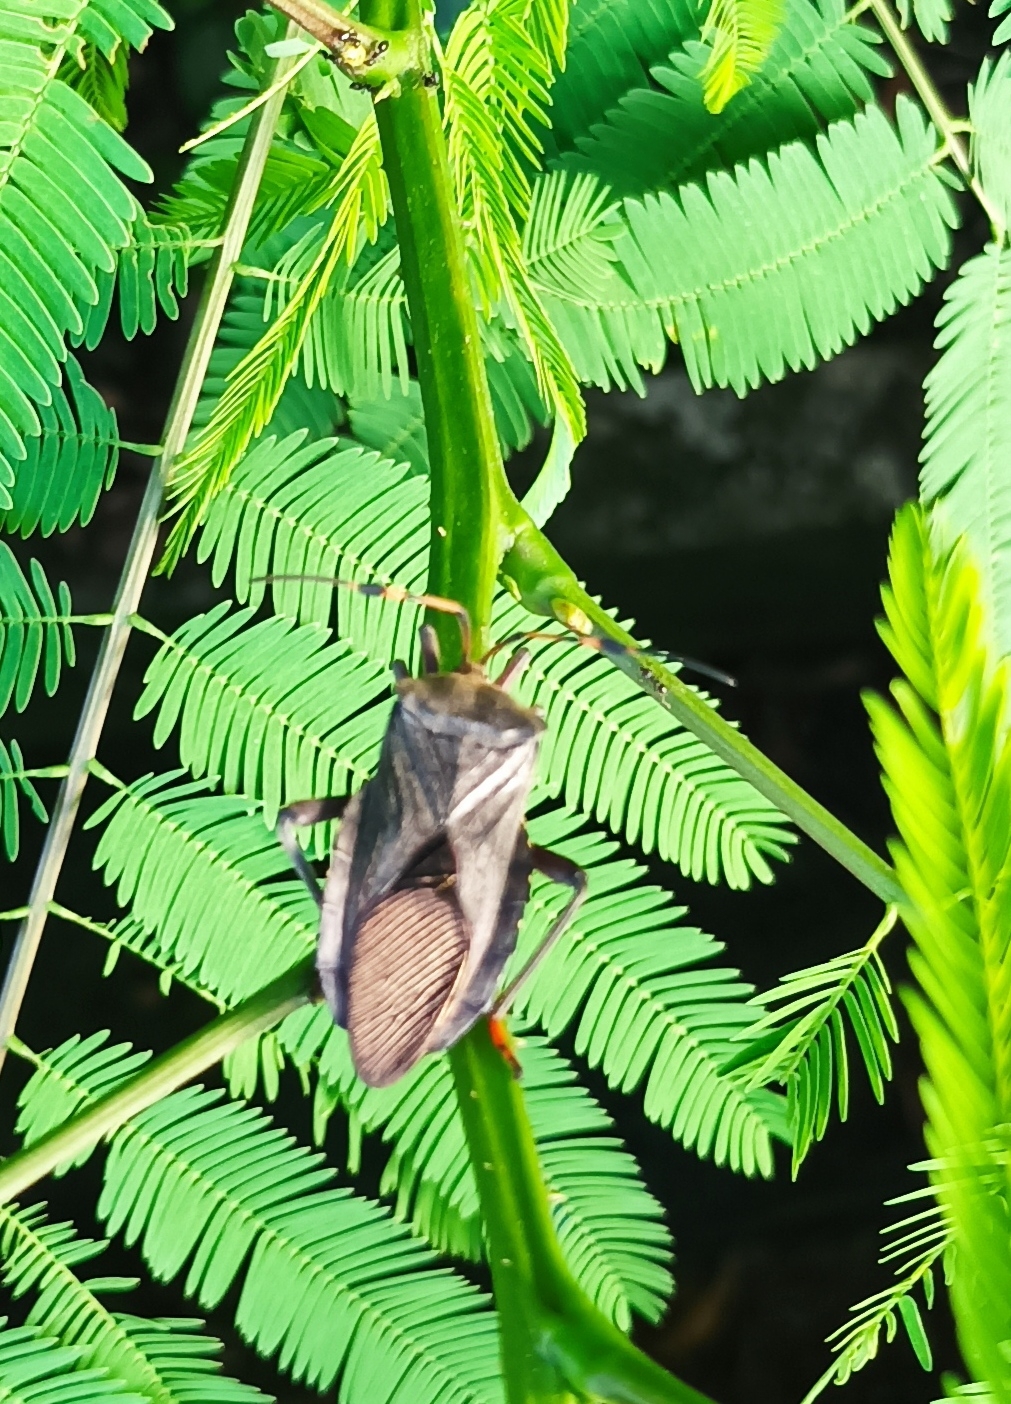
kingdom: Animalia
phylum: Arthropoda
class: Insecta
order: Hemiptera
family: Coreidae
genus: Pachylis
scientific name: Pachylis peramplus
